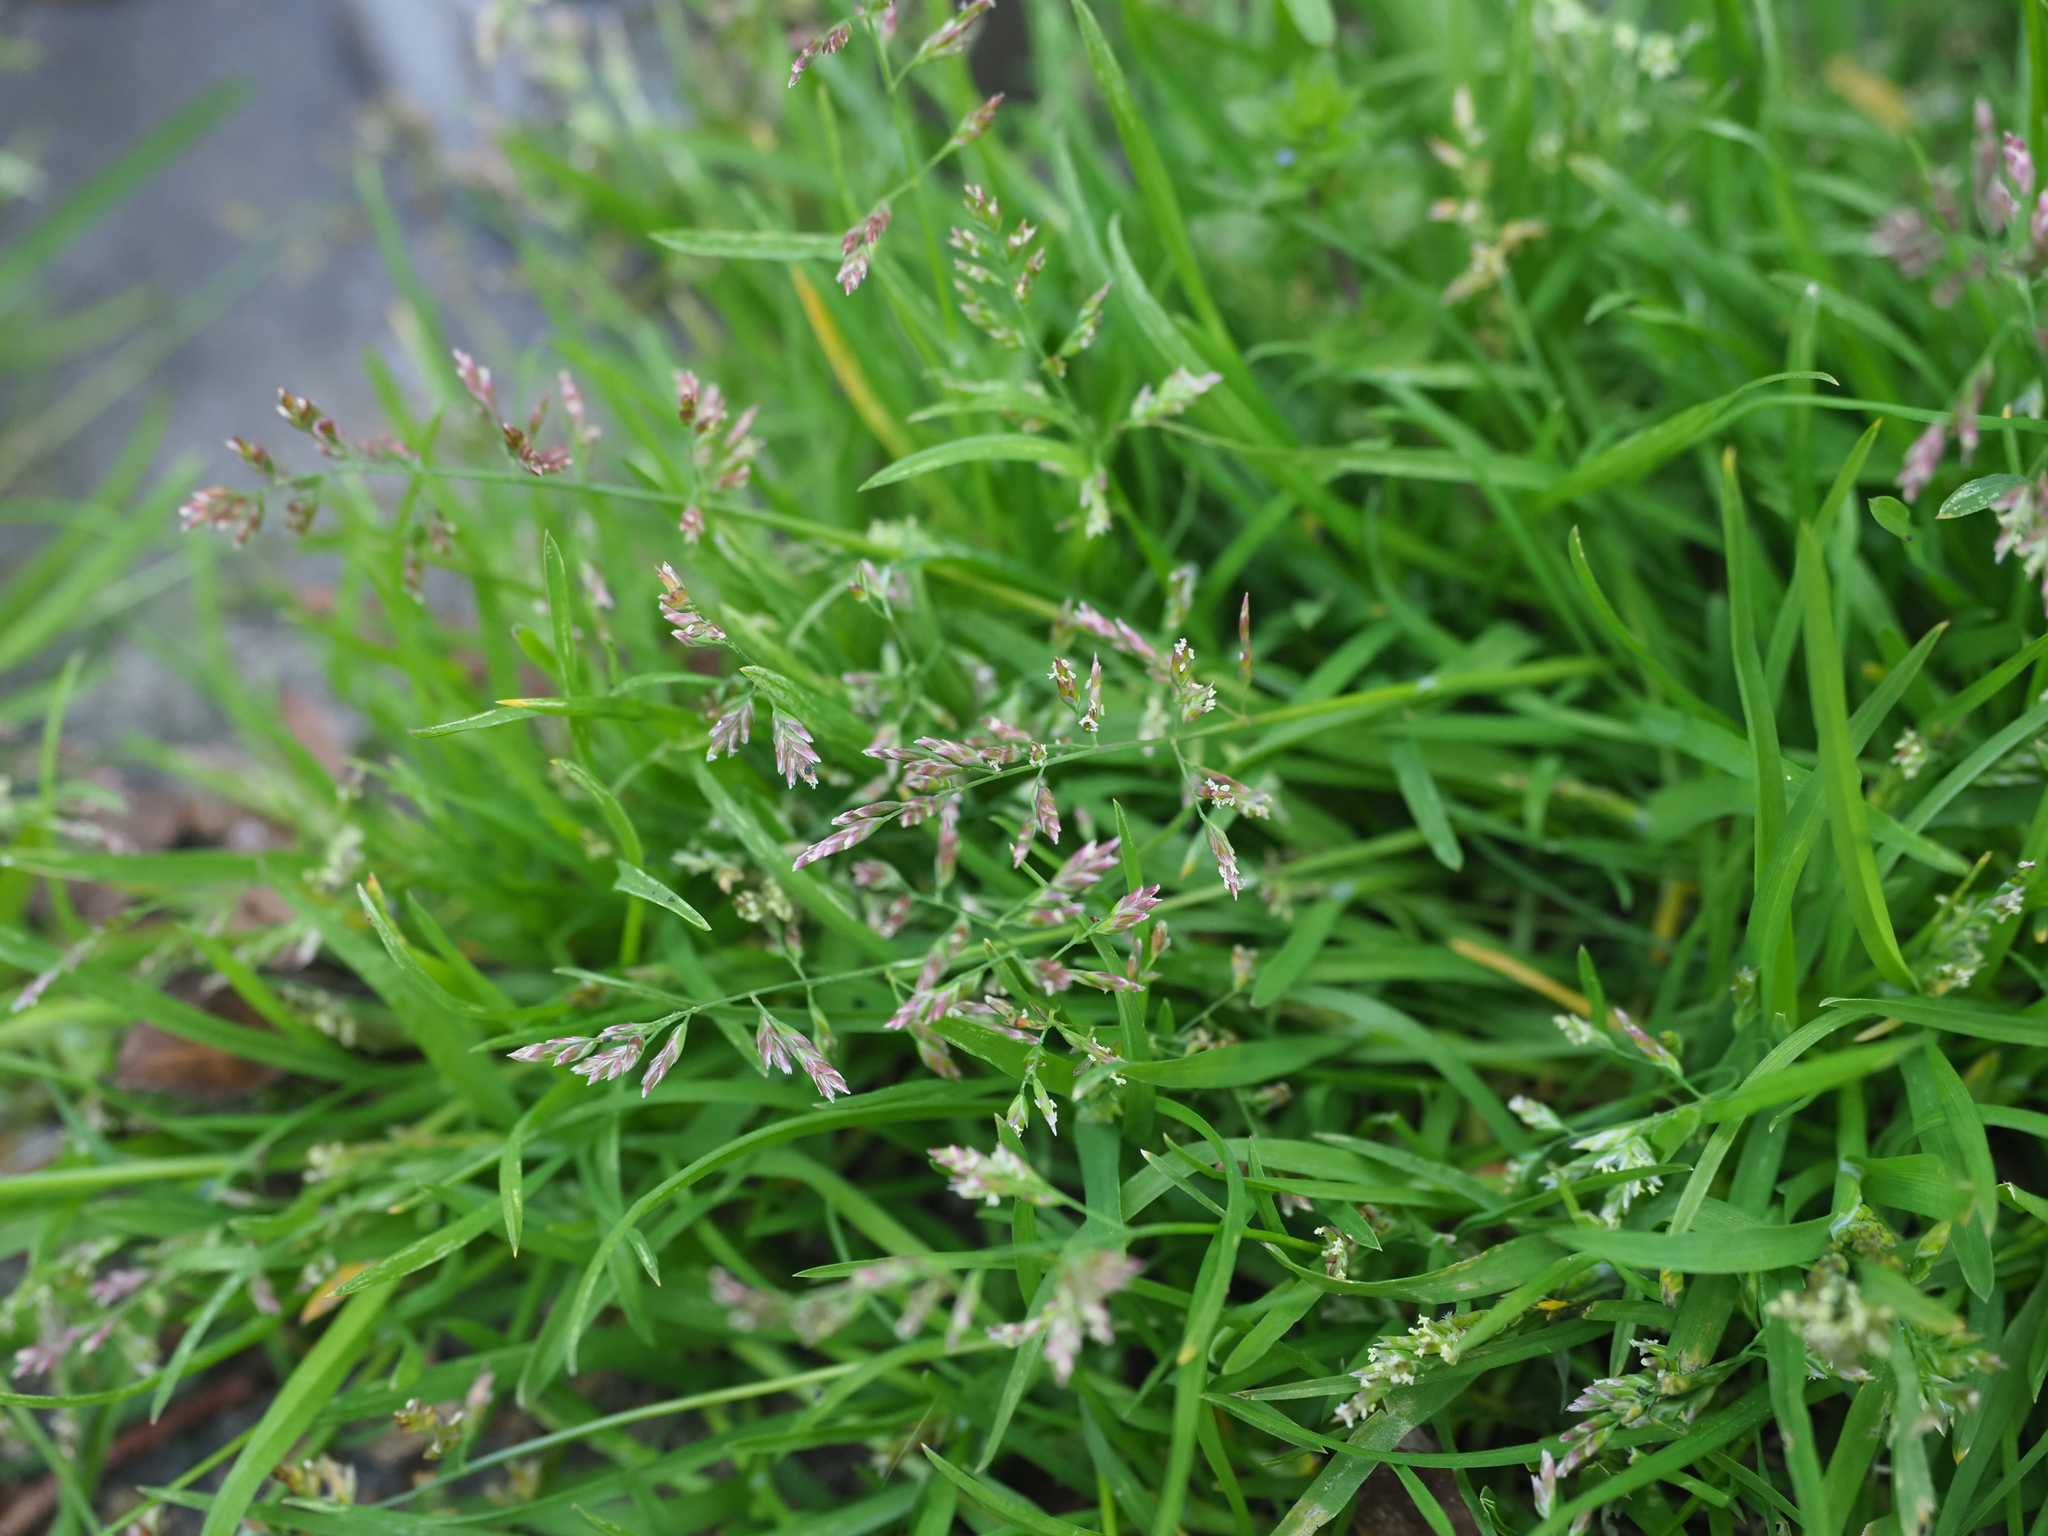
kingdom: Plantae
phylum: Tracheophyta
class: Liliopsida
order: Poales
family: Poaceae
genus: Poa
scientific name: Poa annua
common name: Annual bluegrass
